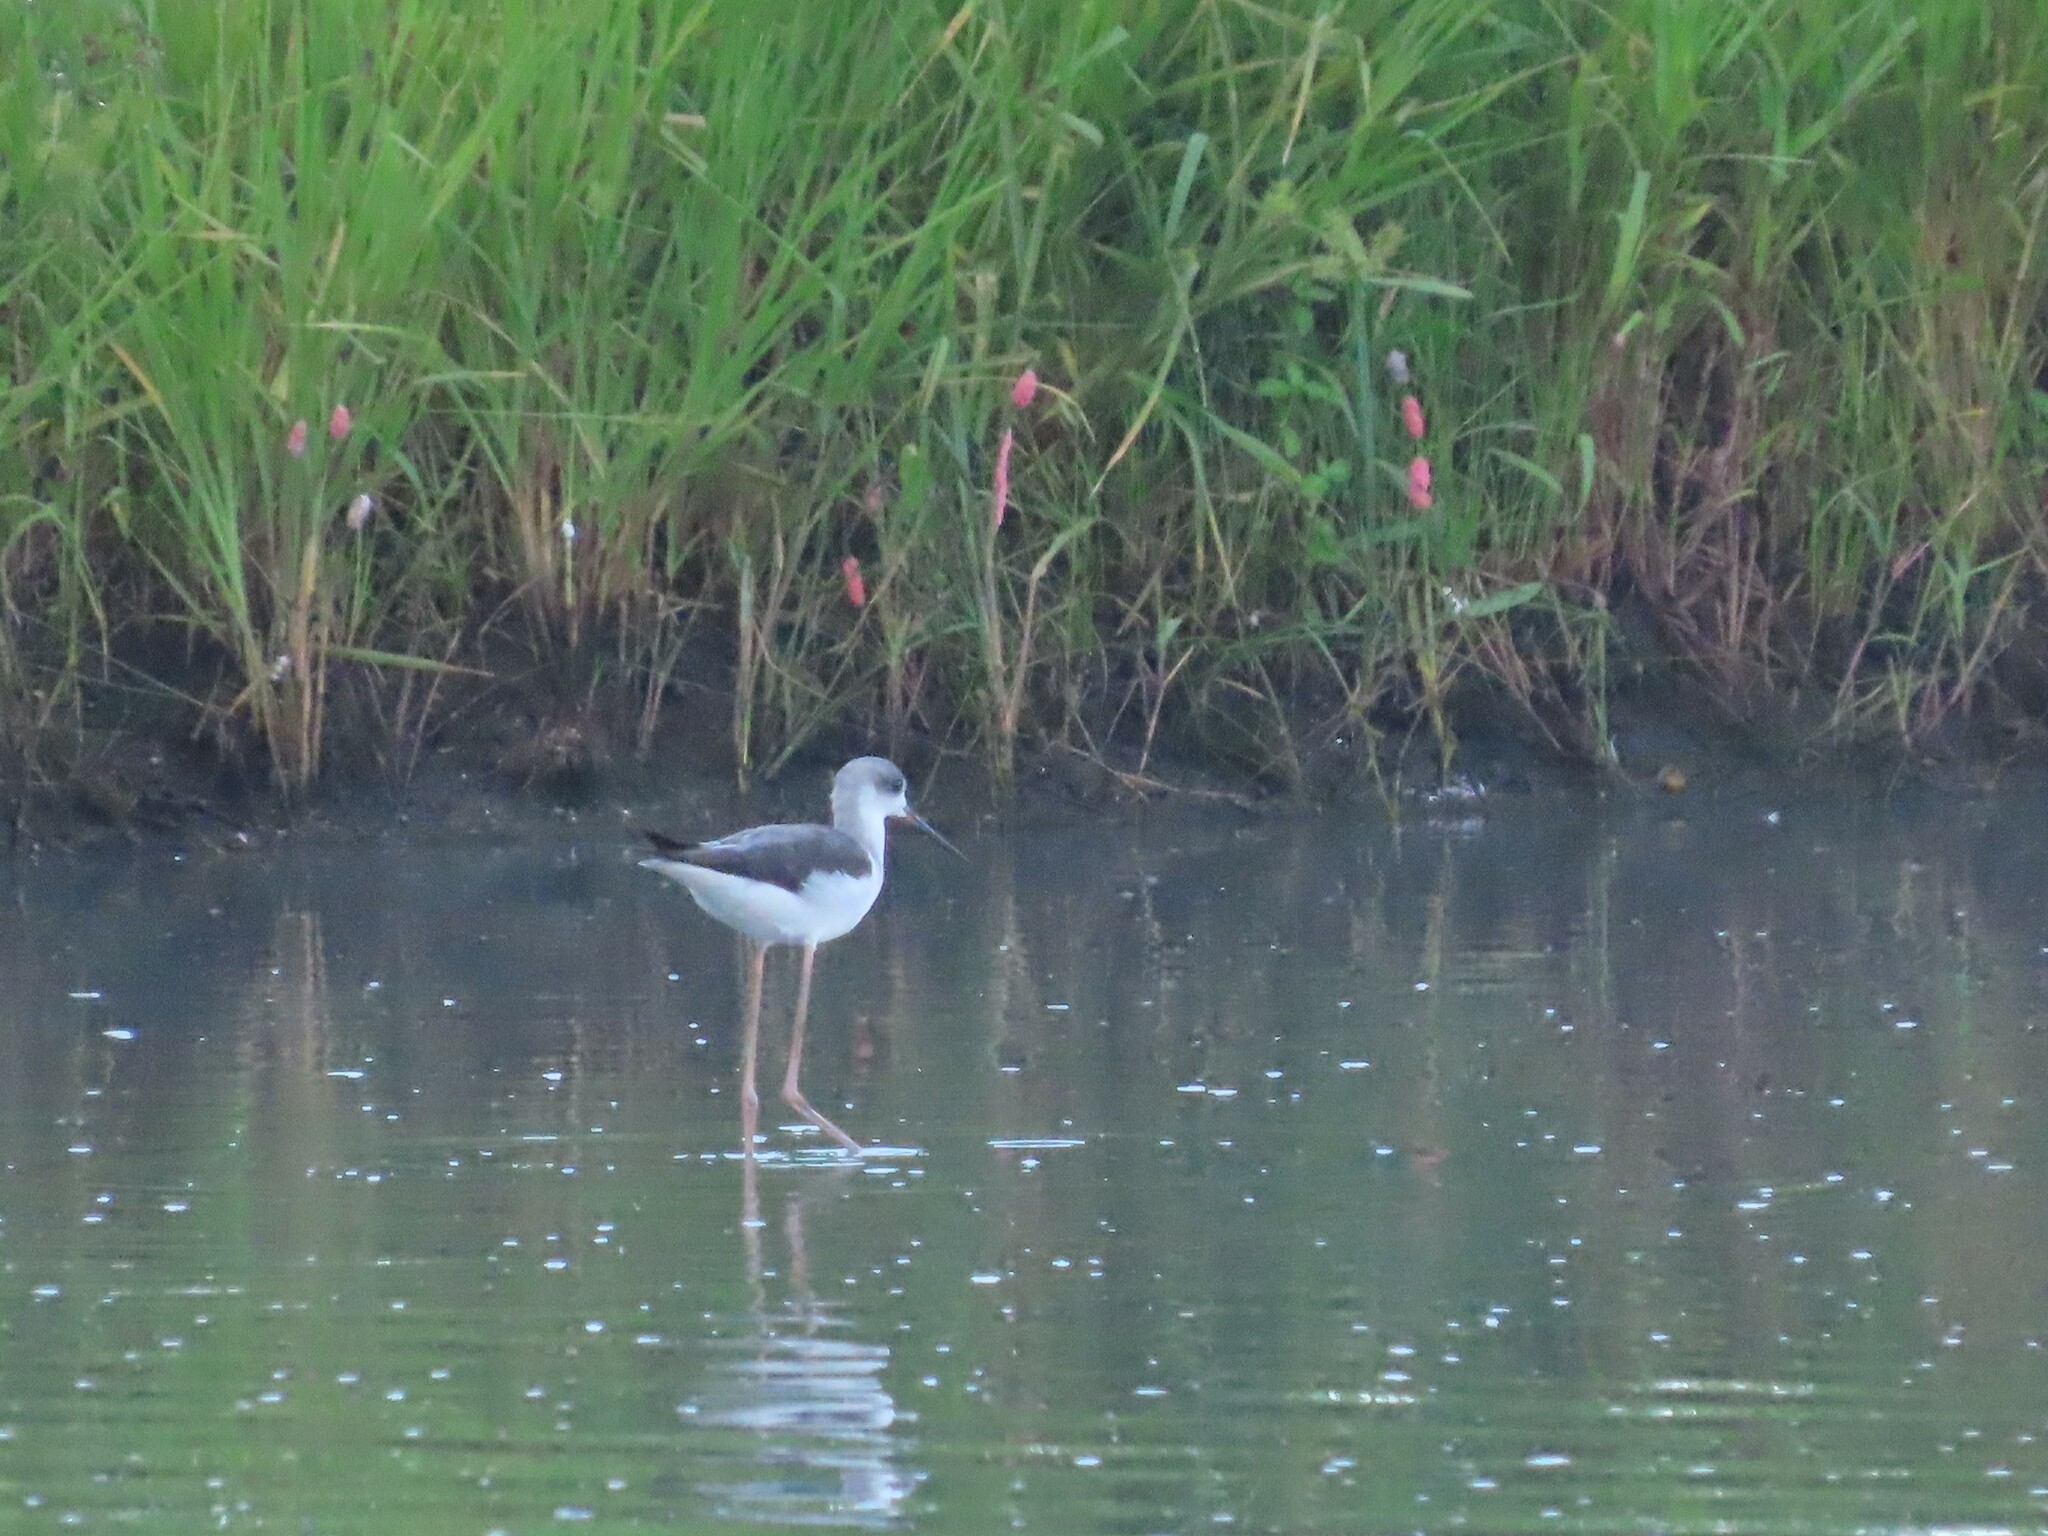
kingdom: Animalia
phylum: Chordata
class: Aves
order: Charadriiformes
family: Recurvirostridae
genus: Himantopus
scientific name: Himantopus himantopus
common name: Black-winged stilt
